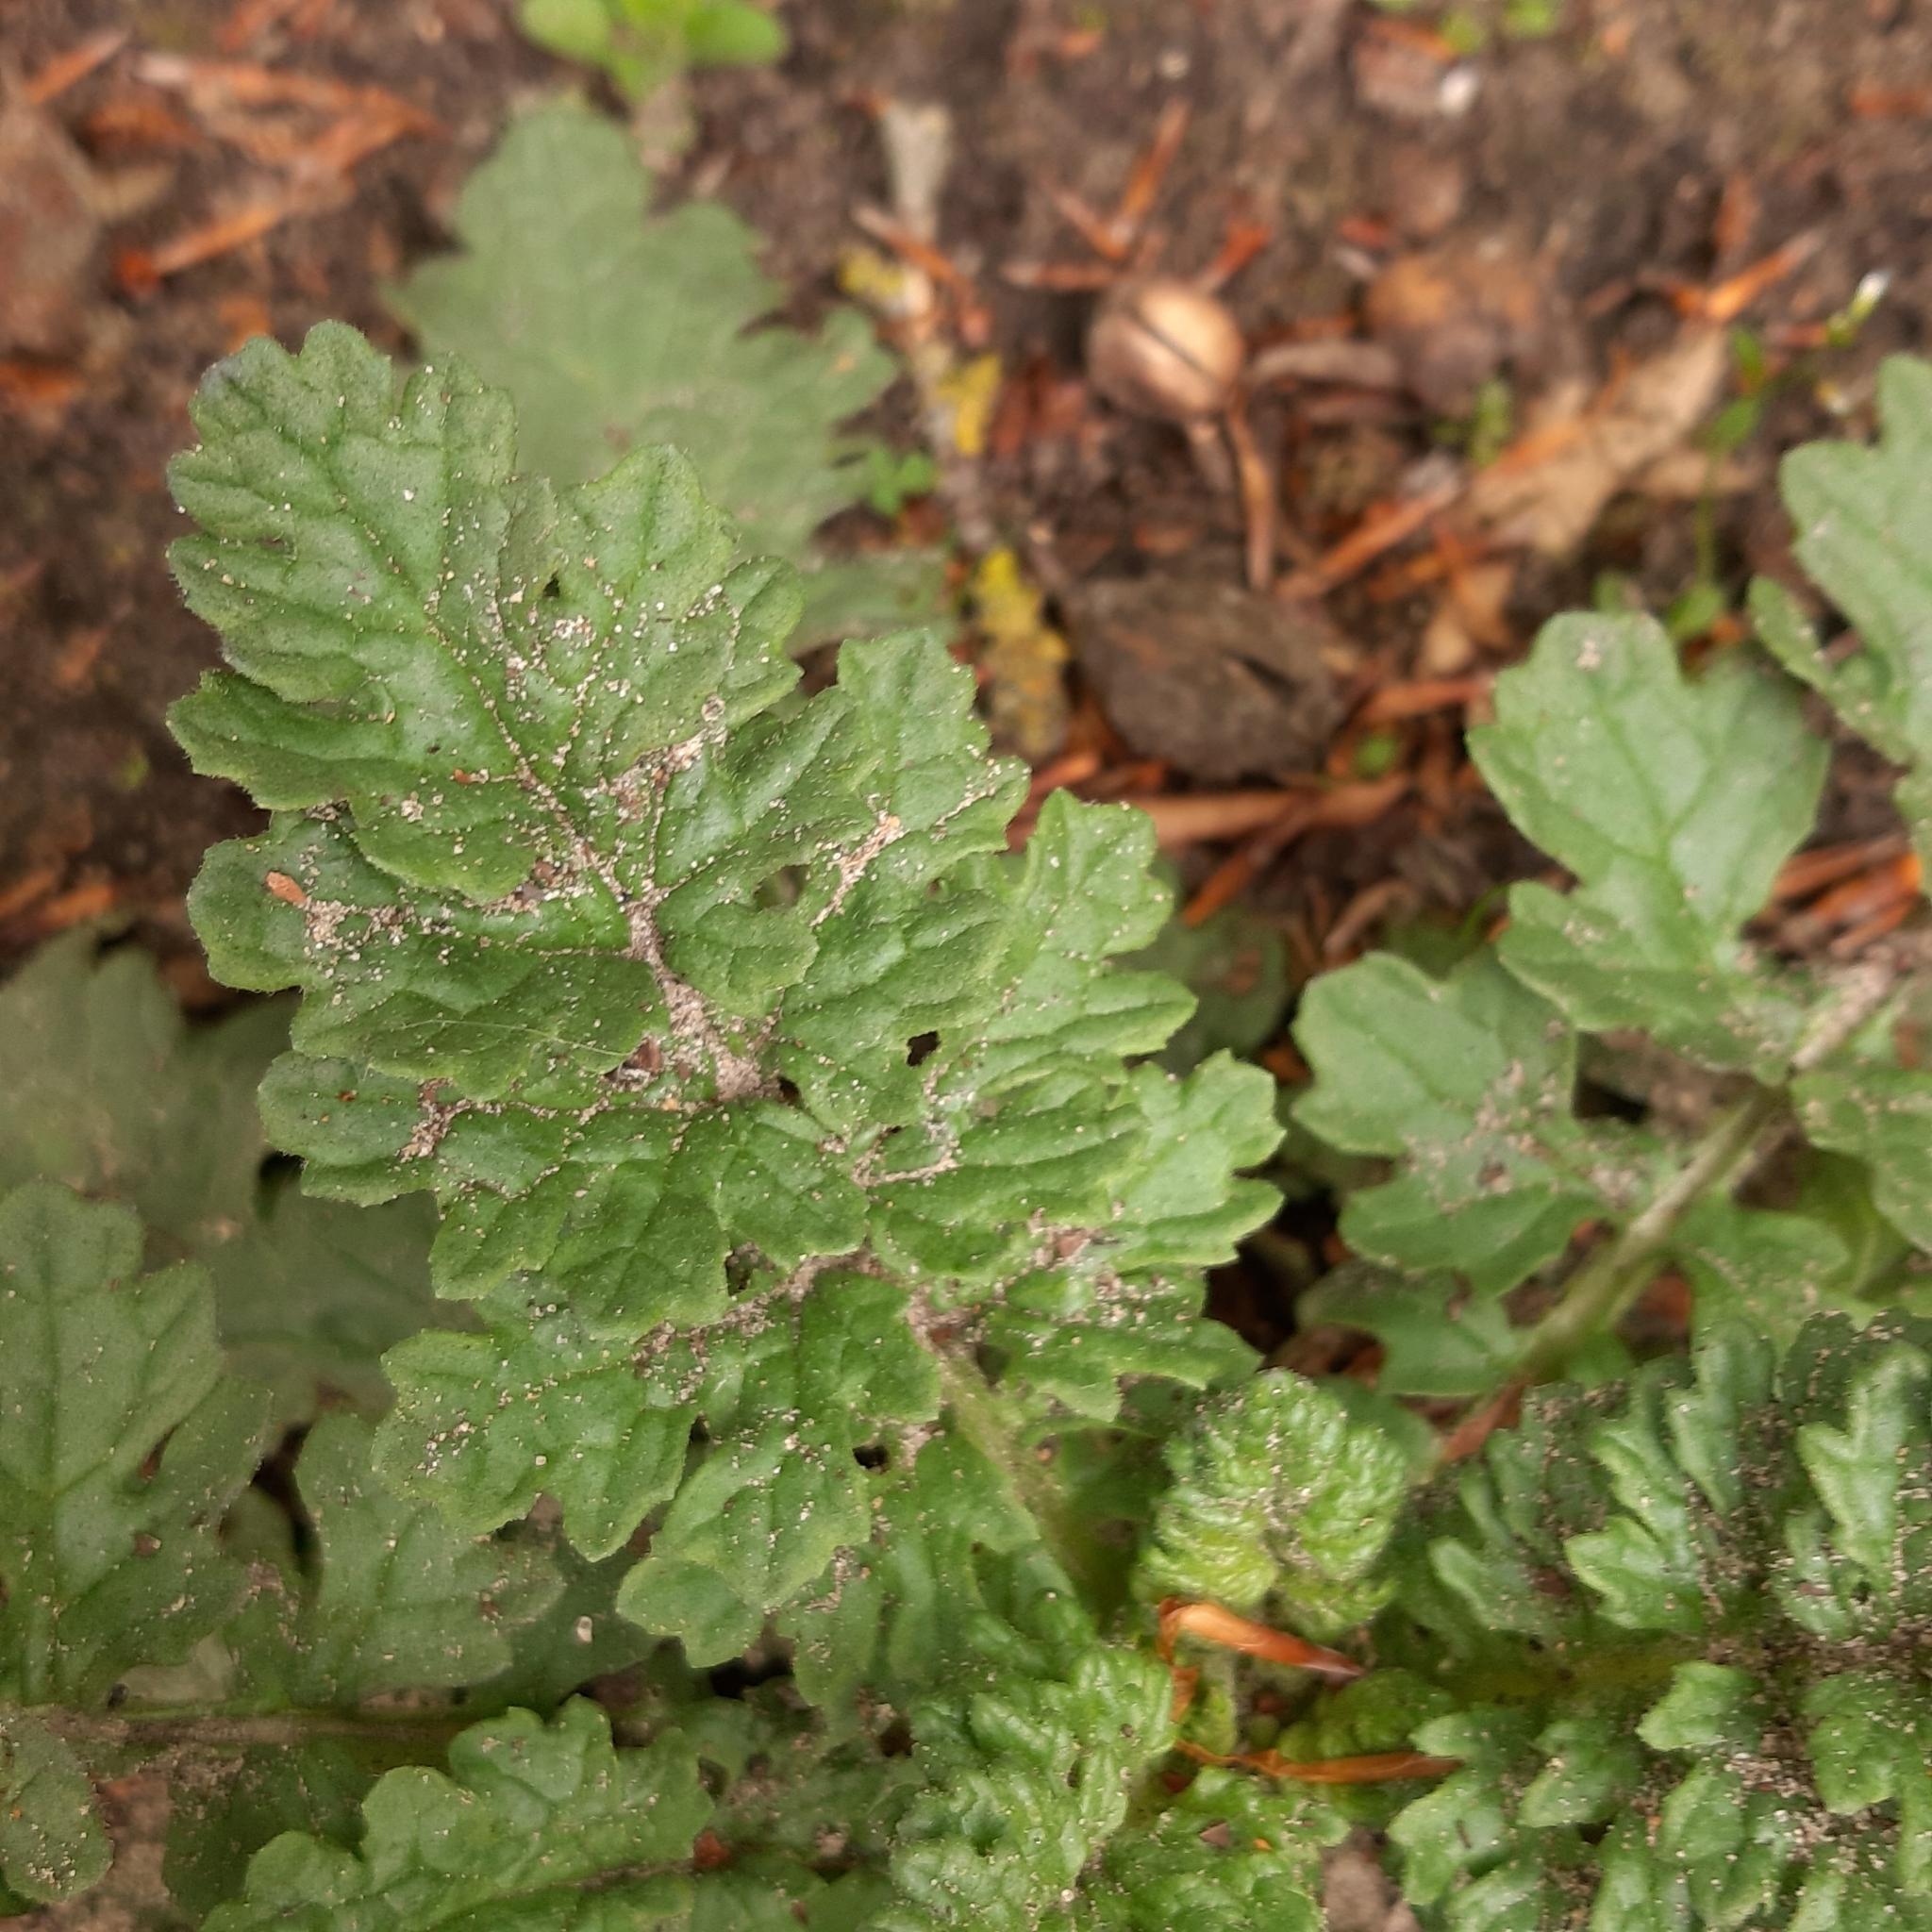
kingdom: Plantae
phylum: Tracheophyta
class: Magnoliopsida
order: Asterales
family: Asteraceae
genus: Jacobaea
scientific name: Jacobaea vulgaris
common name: Stinking willie
